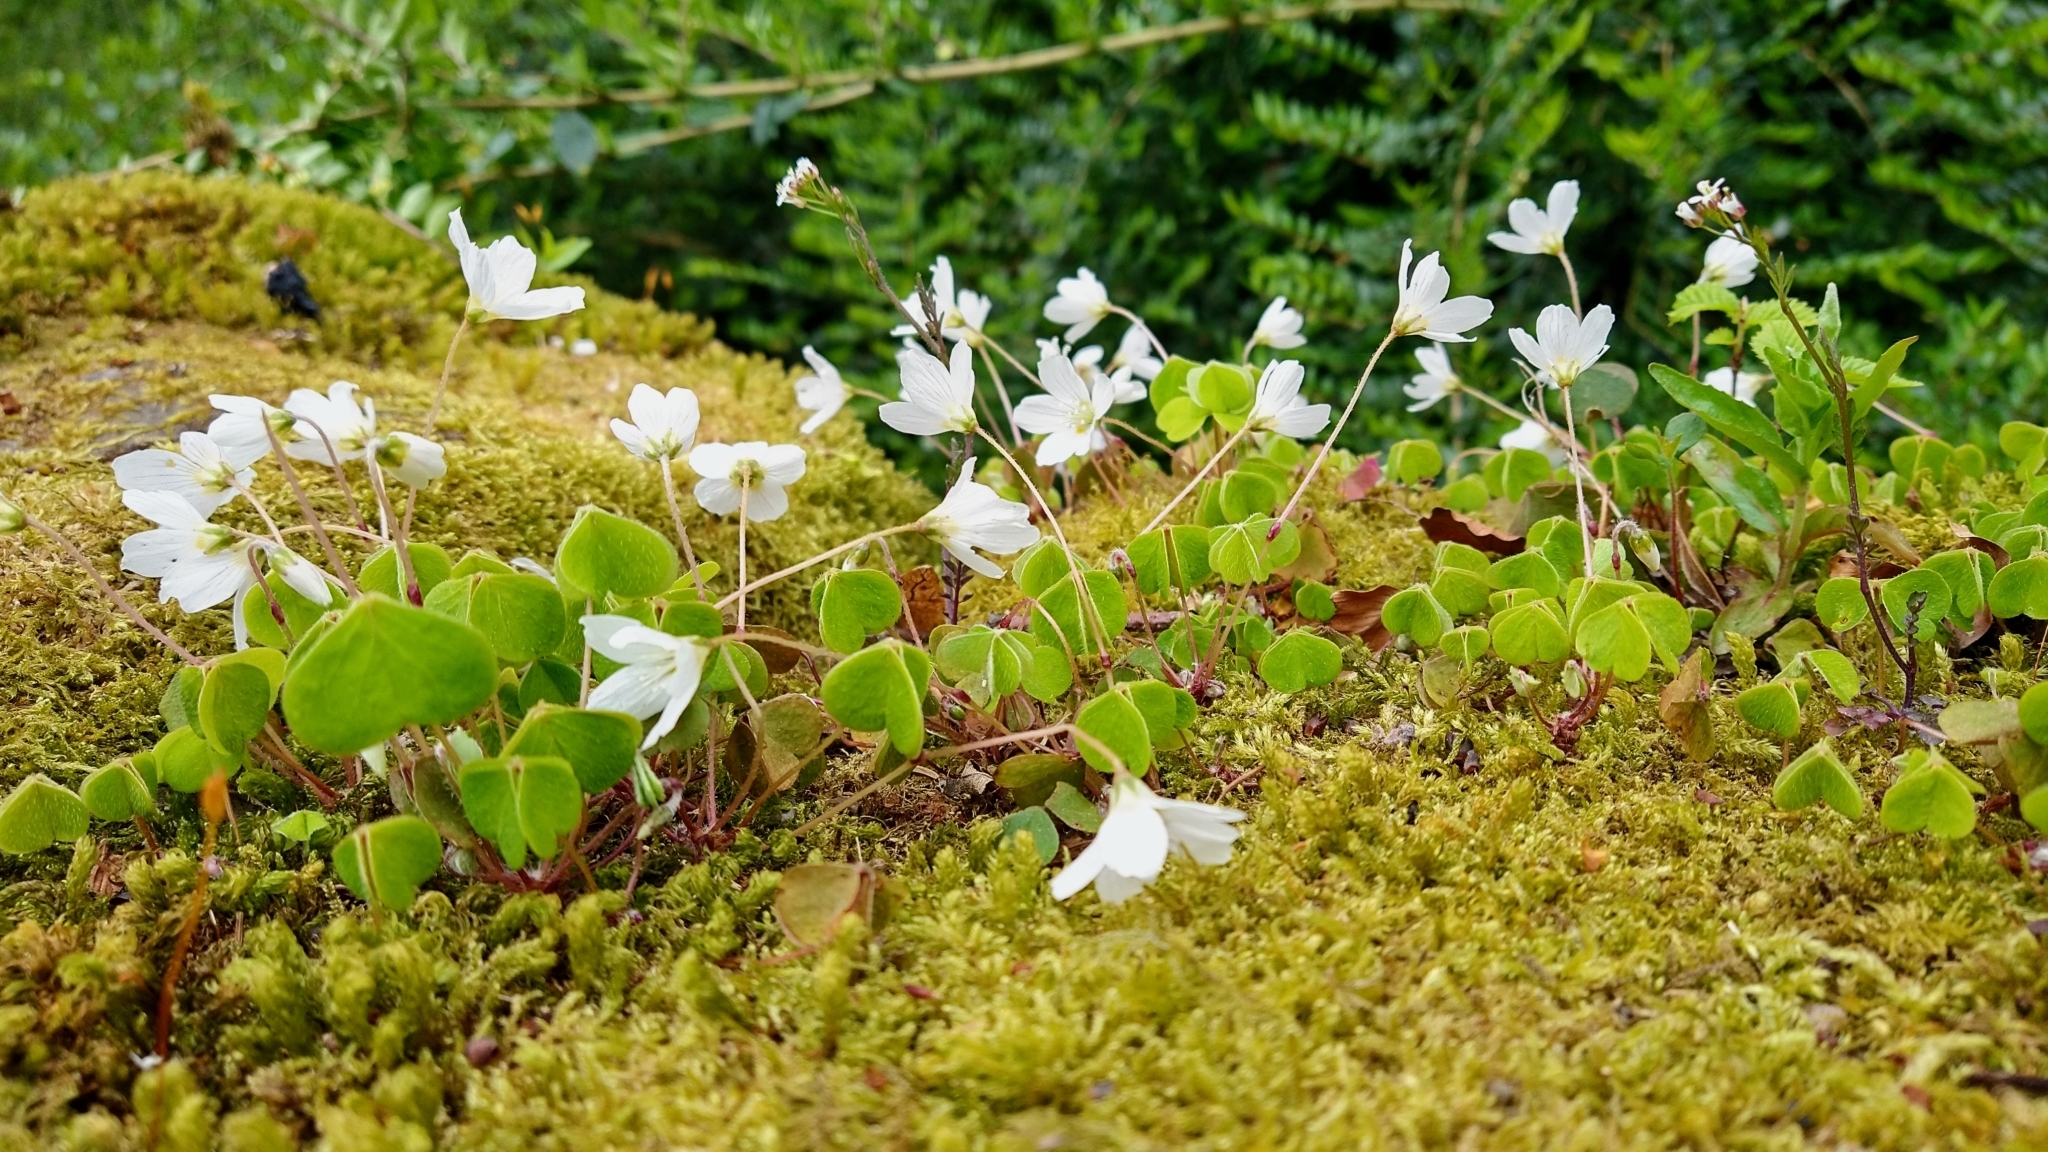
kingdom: Plantae
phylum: Tracheophyta
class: Magnoliopsida
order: Oxalidales
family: Oxalidaceae
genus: Oxalis
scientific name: Oxalis acetosella
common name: Wood-sorrel
